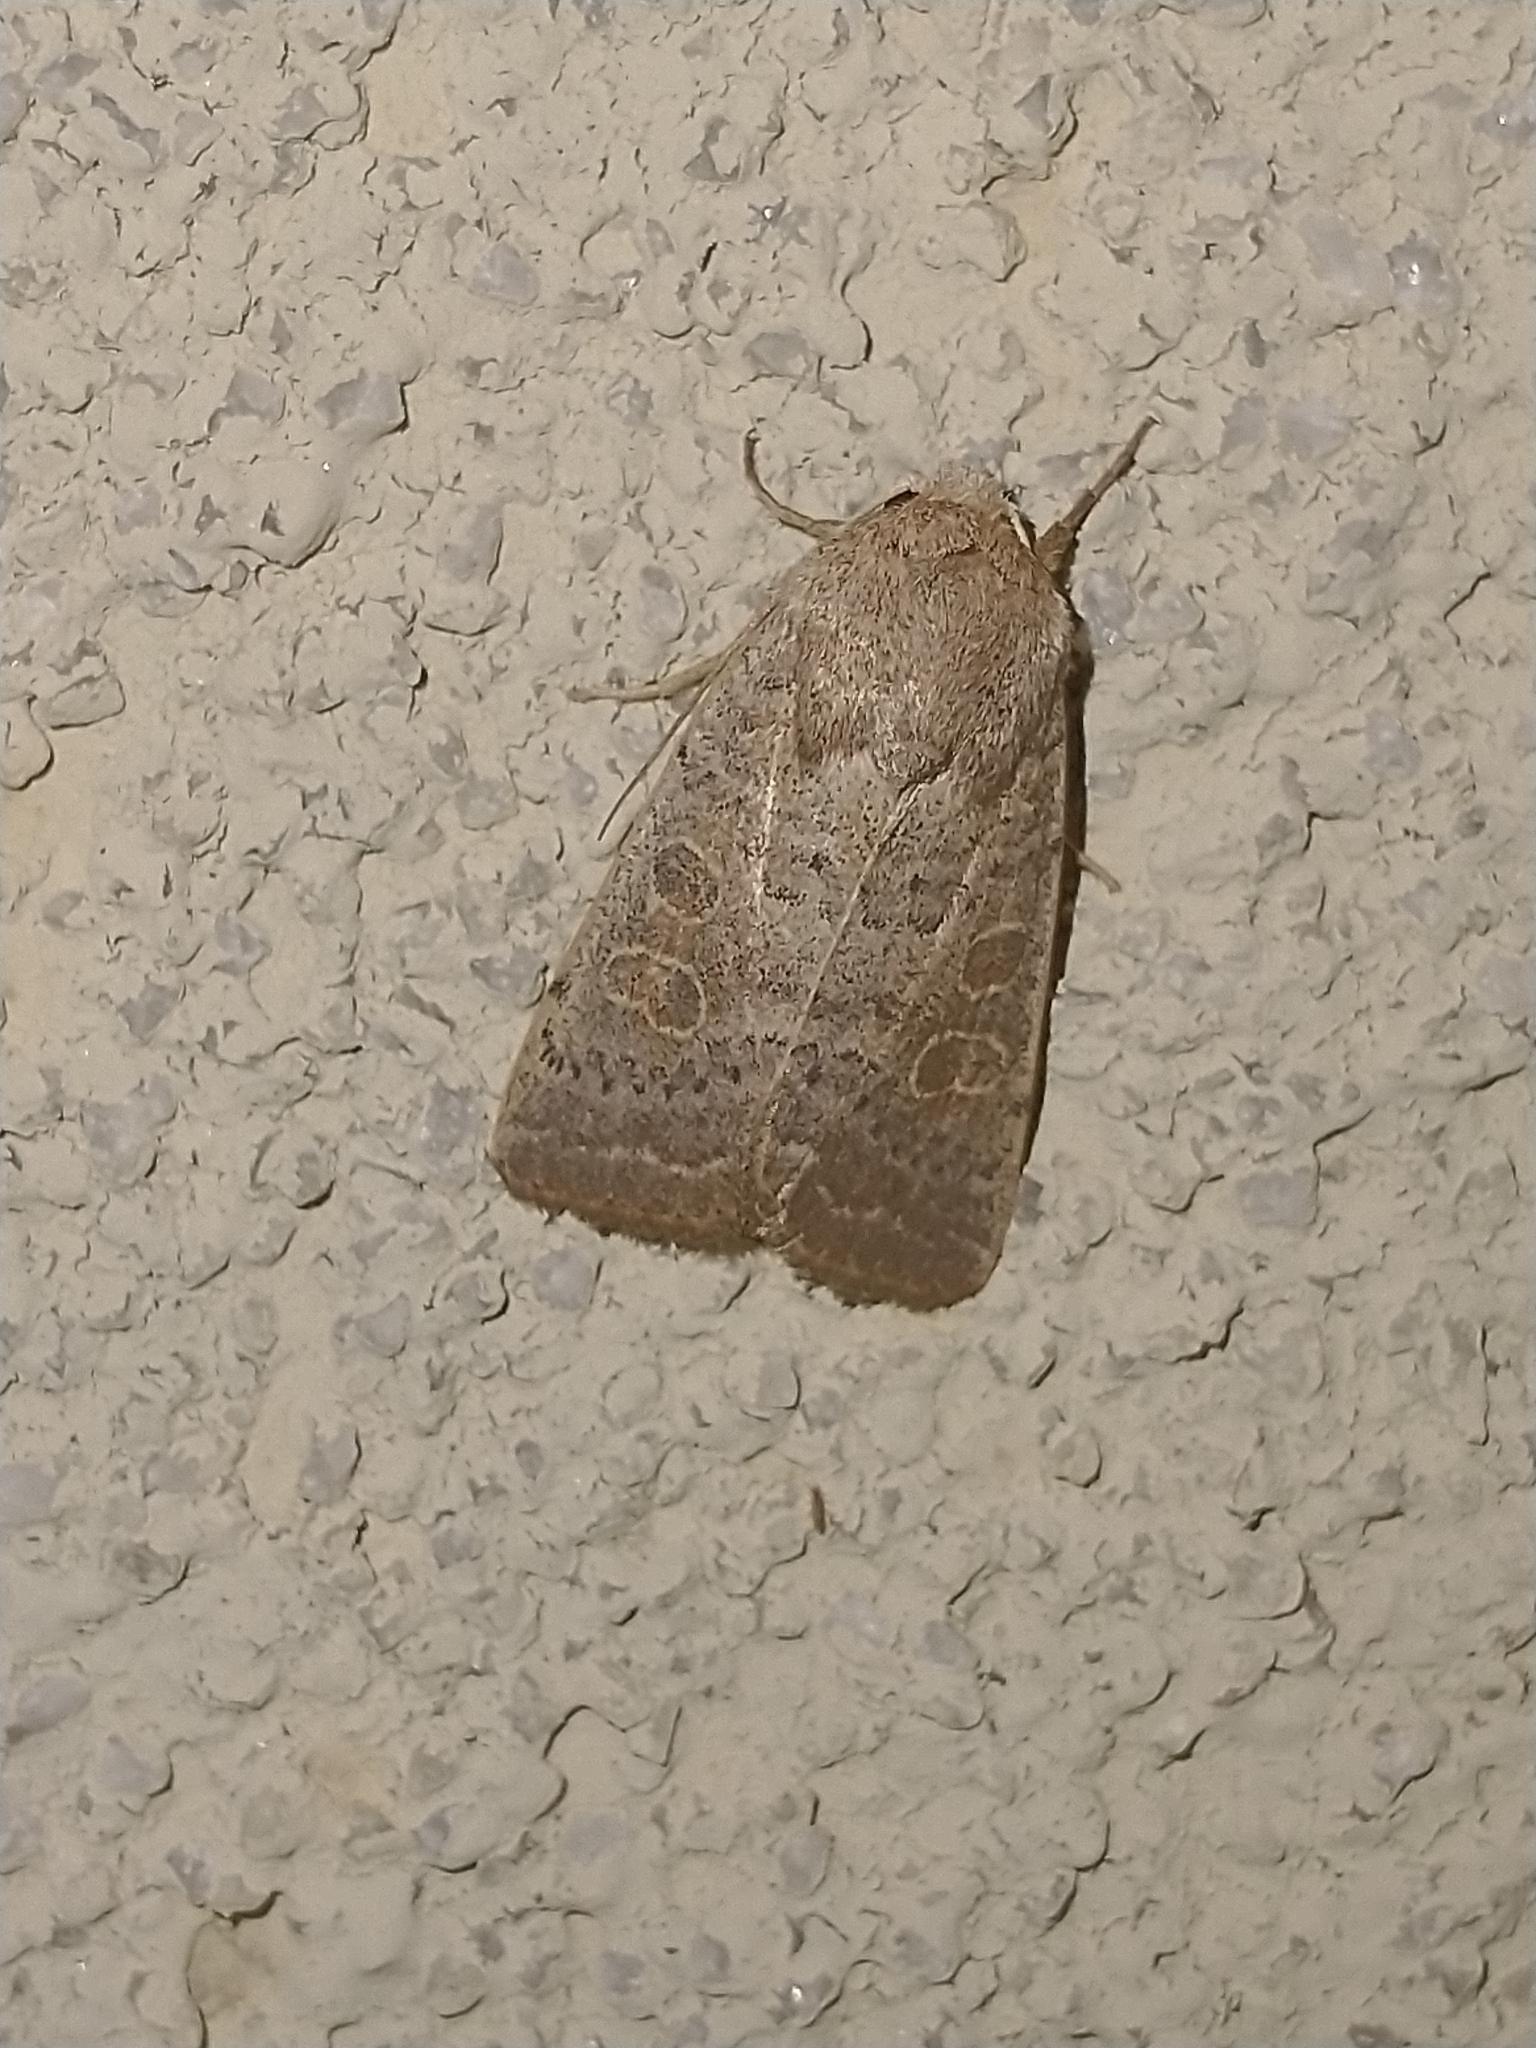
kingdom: Animalia
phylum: Arthropoda
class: Insecta
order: Lepidoptera
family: Noctuidae
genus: Hoplodrina
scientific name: Hoplodrina ambigua
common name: Vine's rustic
